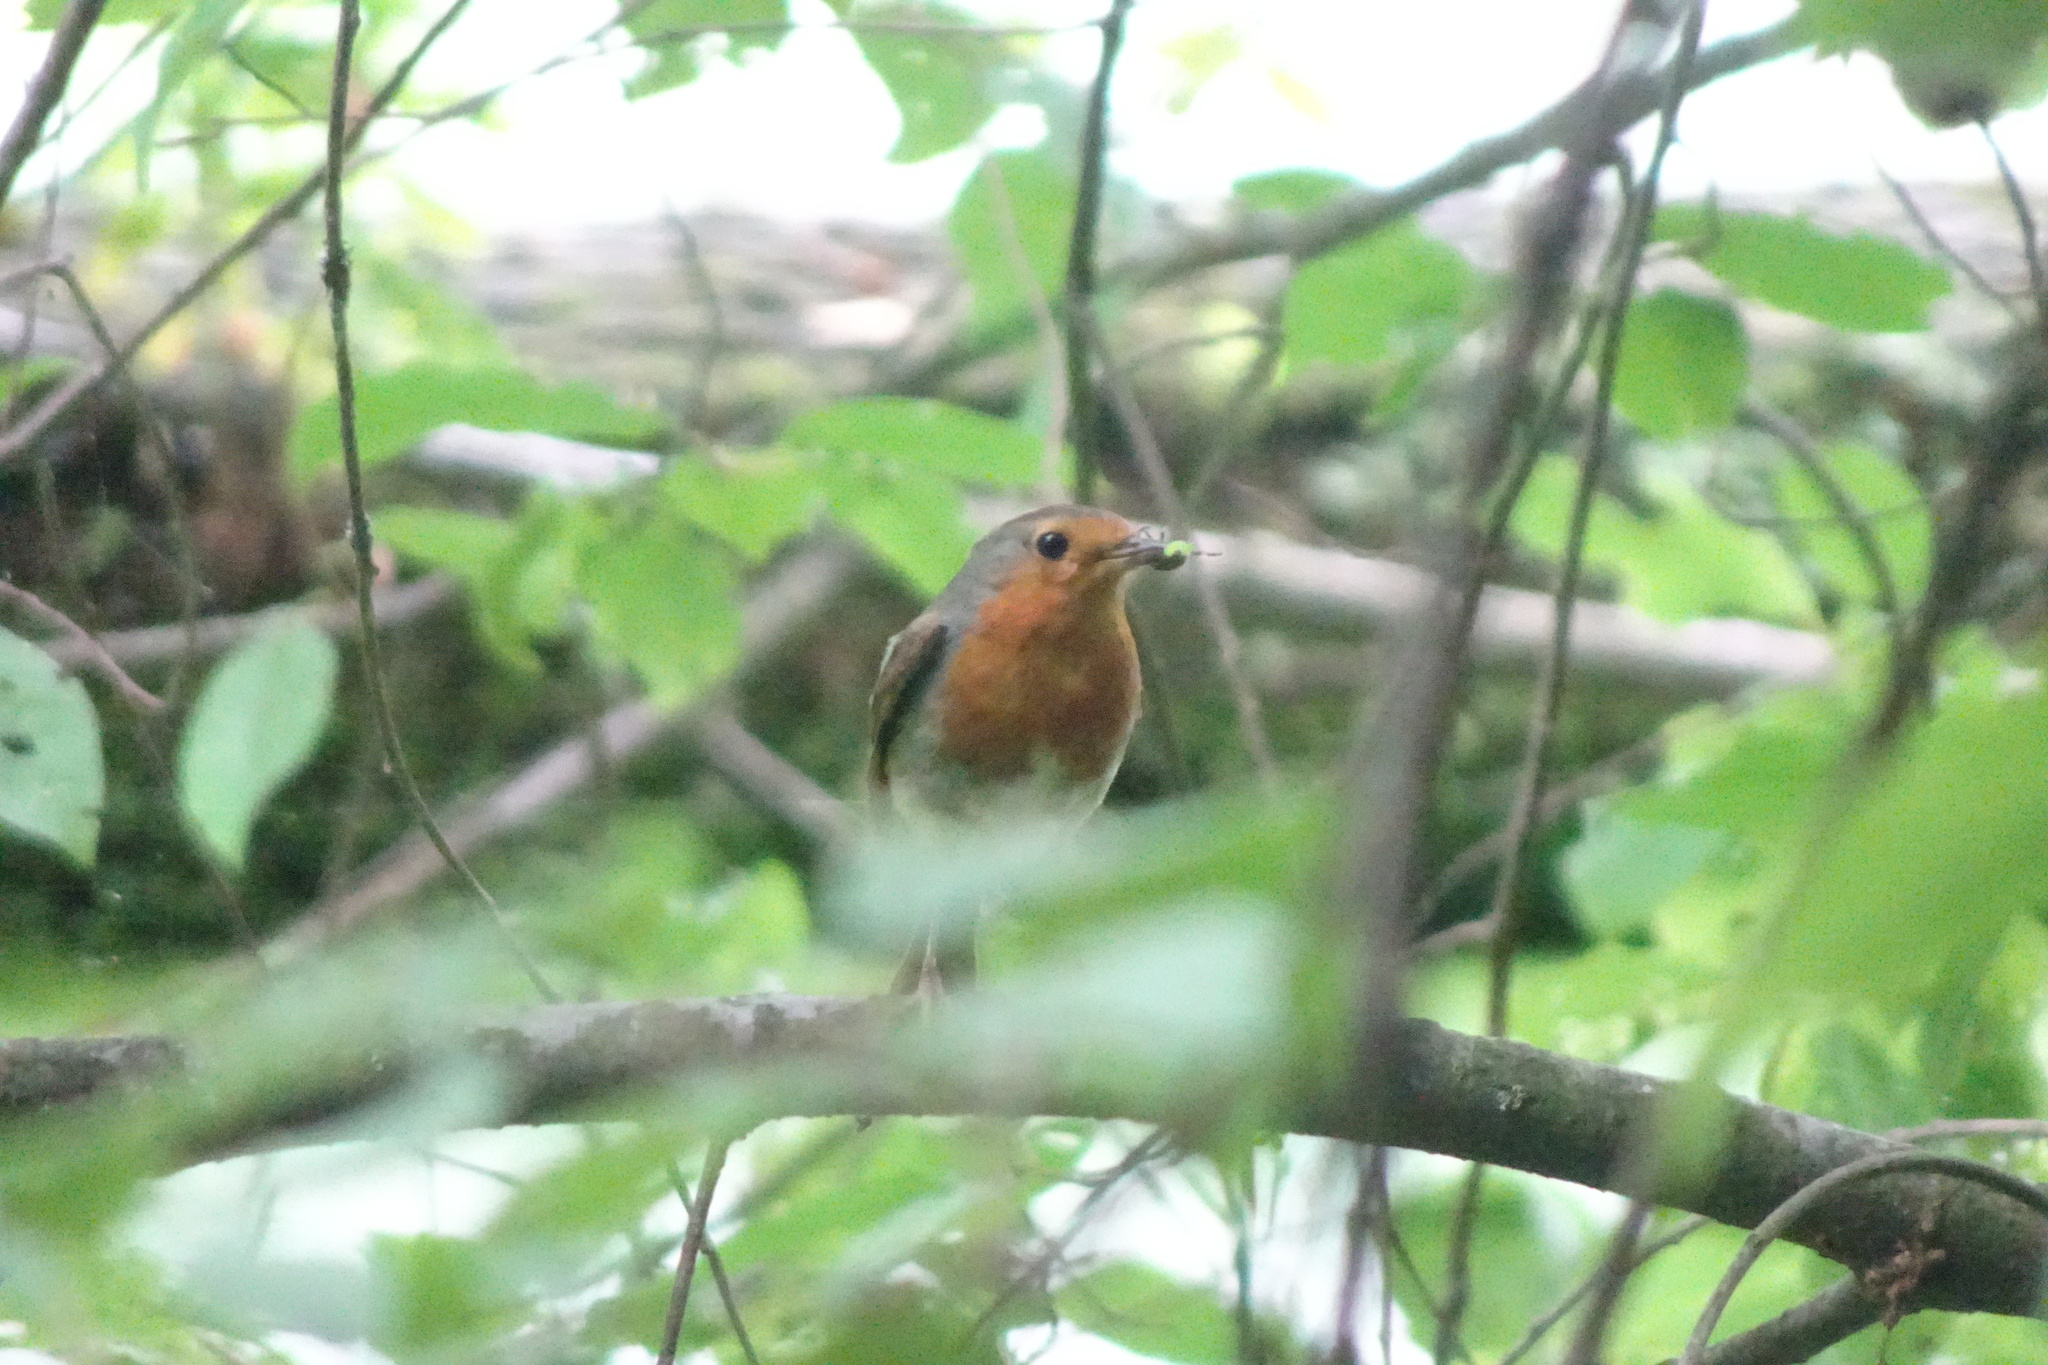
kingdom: Animalia
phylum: Chordata
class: Aves
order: Passeriformes
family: Muscicapidae
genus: Erithacus
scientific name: Erithacus rubecula
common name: European robin
